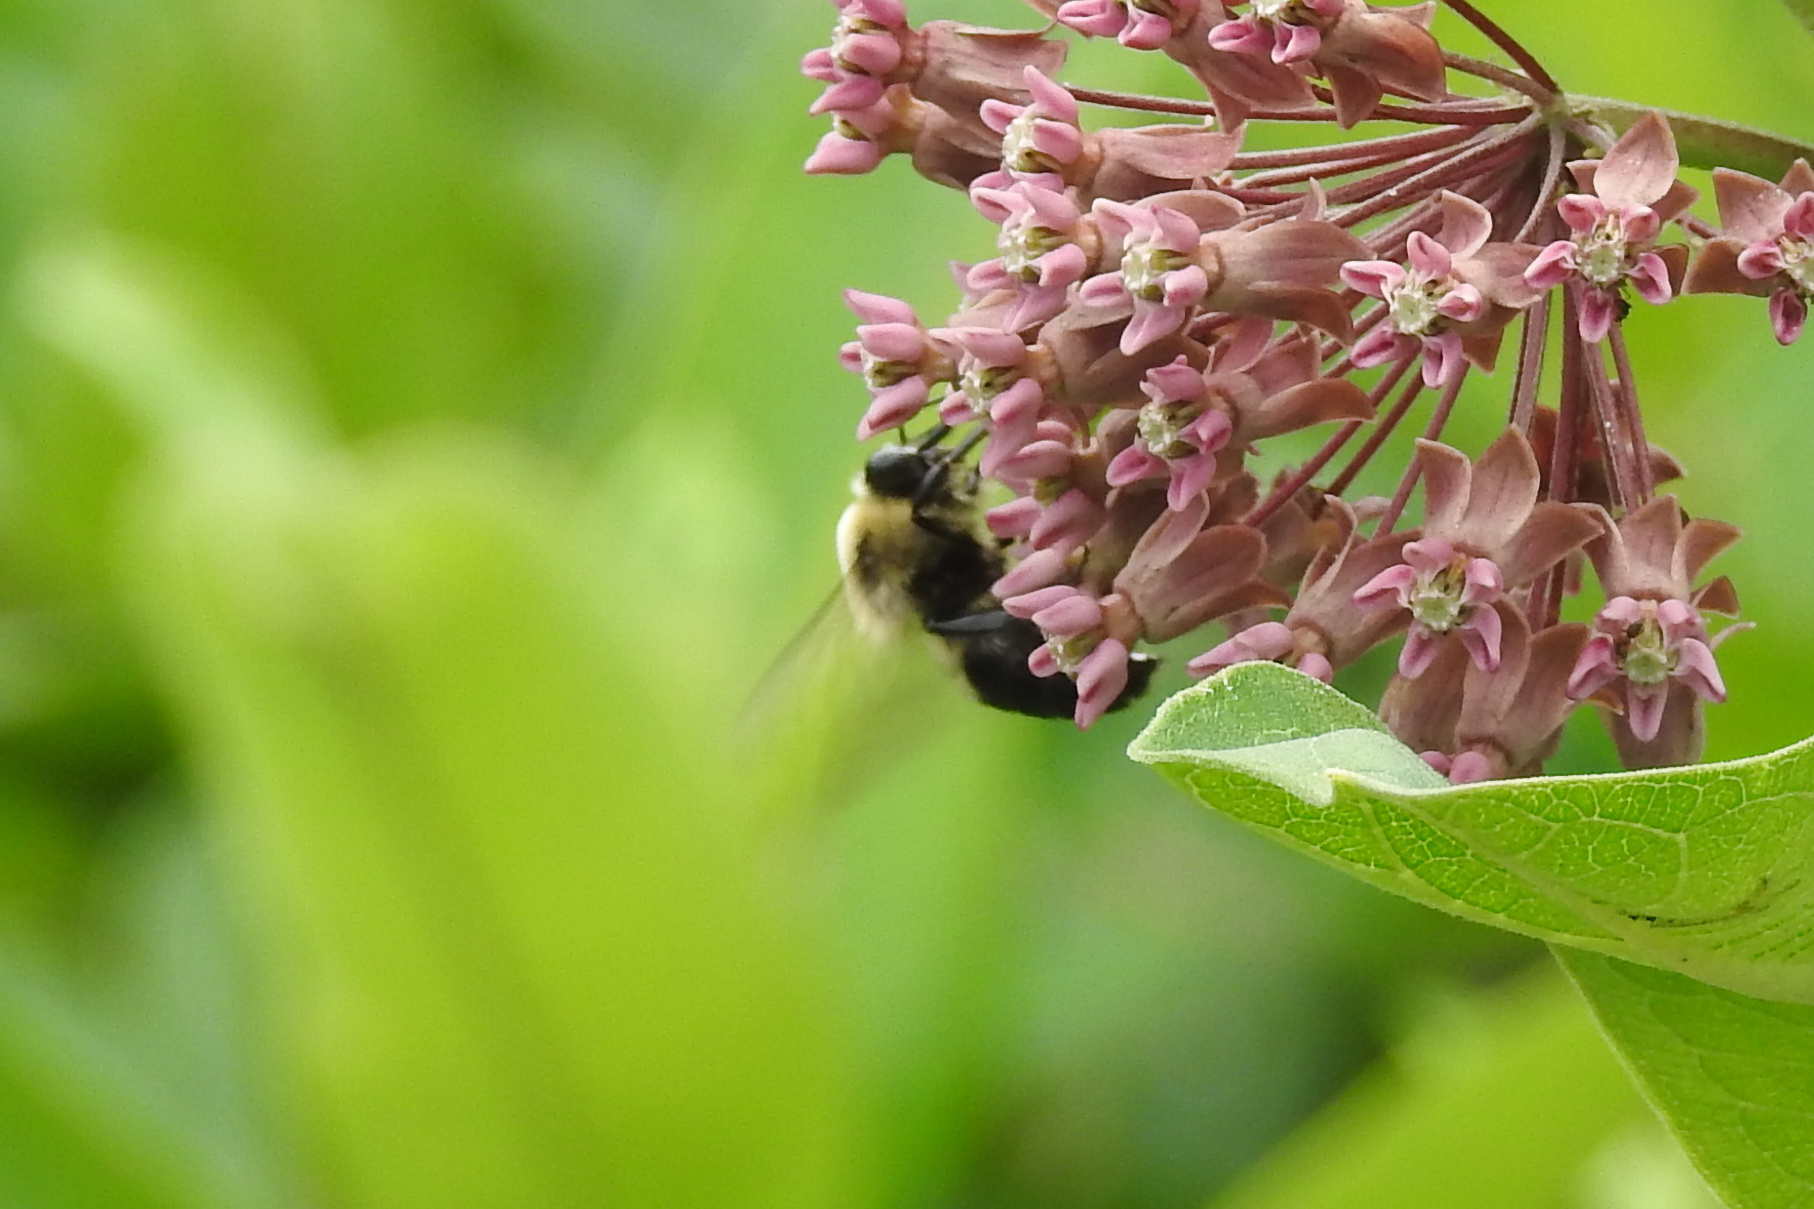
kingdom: Animalia
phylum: Arthropoda
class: Insecta
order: Hymenoptera
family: Apidae
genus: Bombus
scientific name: Bombus griseocollis
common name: Brown-belted bumble bee
